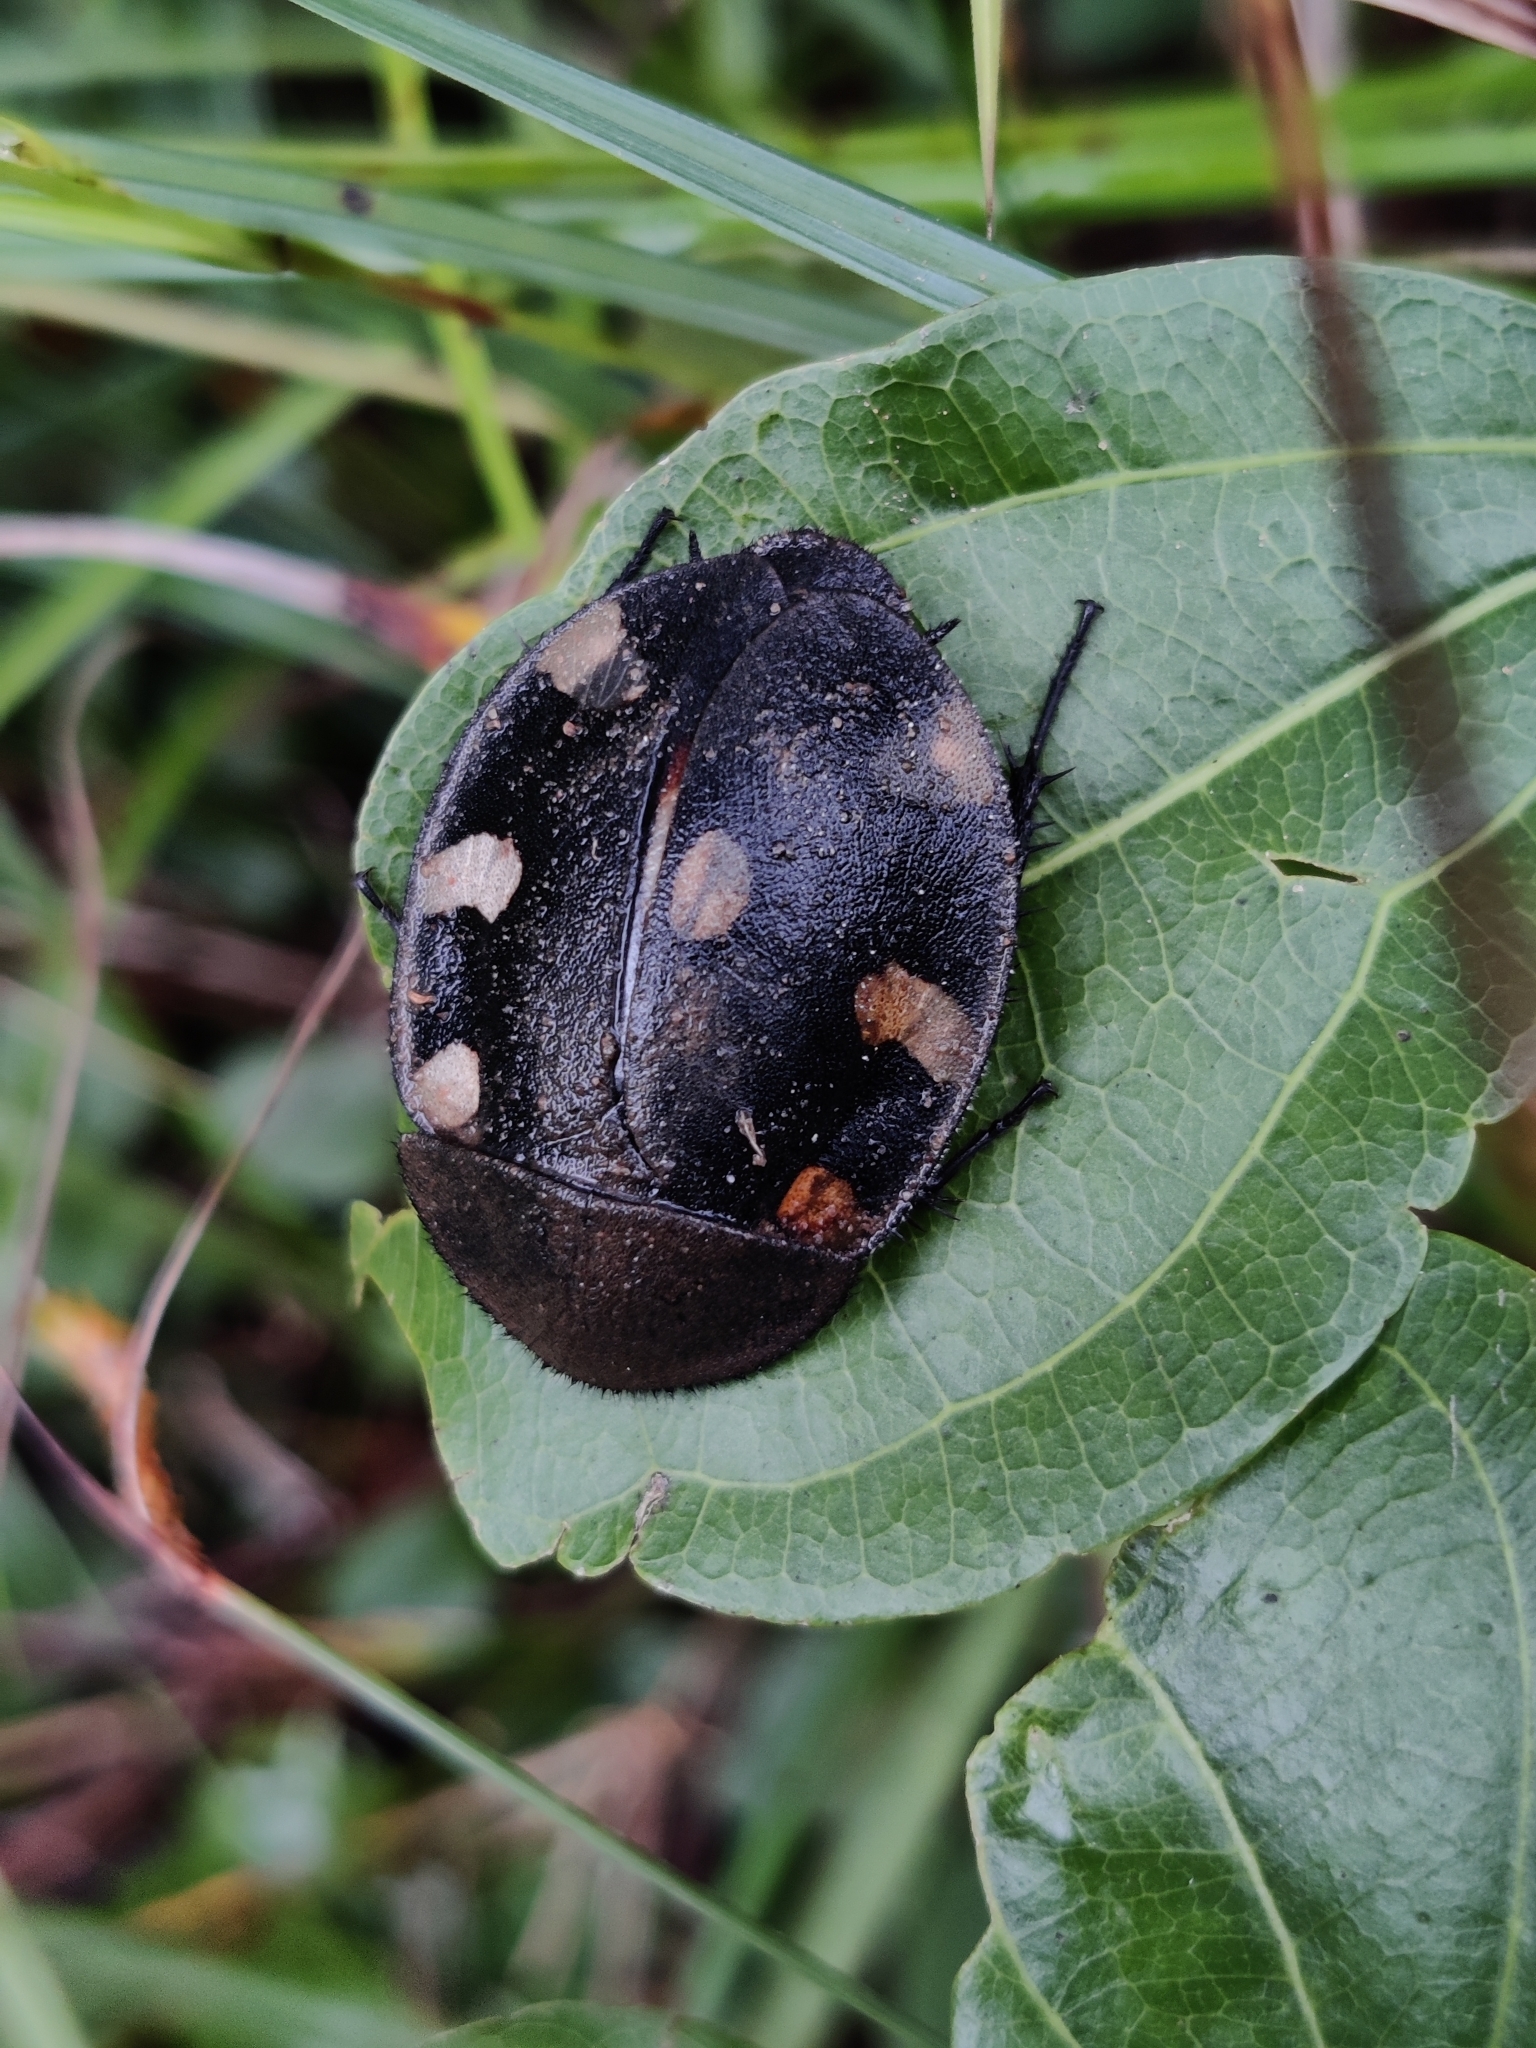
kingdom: Animalia
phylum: Arthropoda
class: Insecta
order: Blattodea
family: Corydiidae
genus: Therea
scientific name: Therea petiveriana
